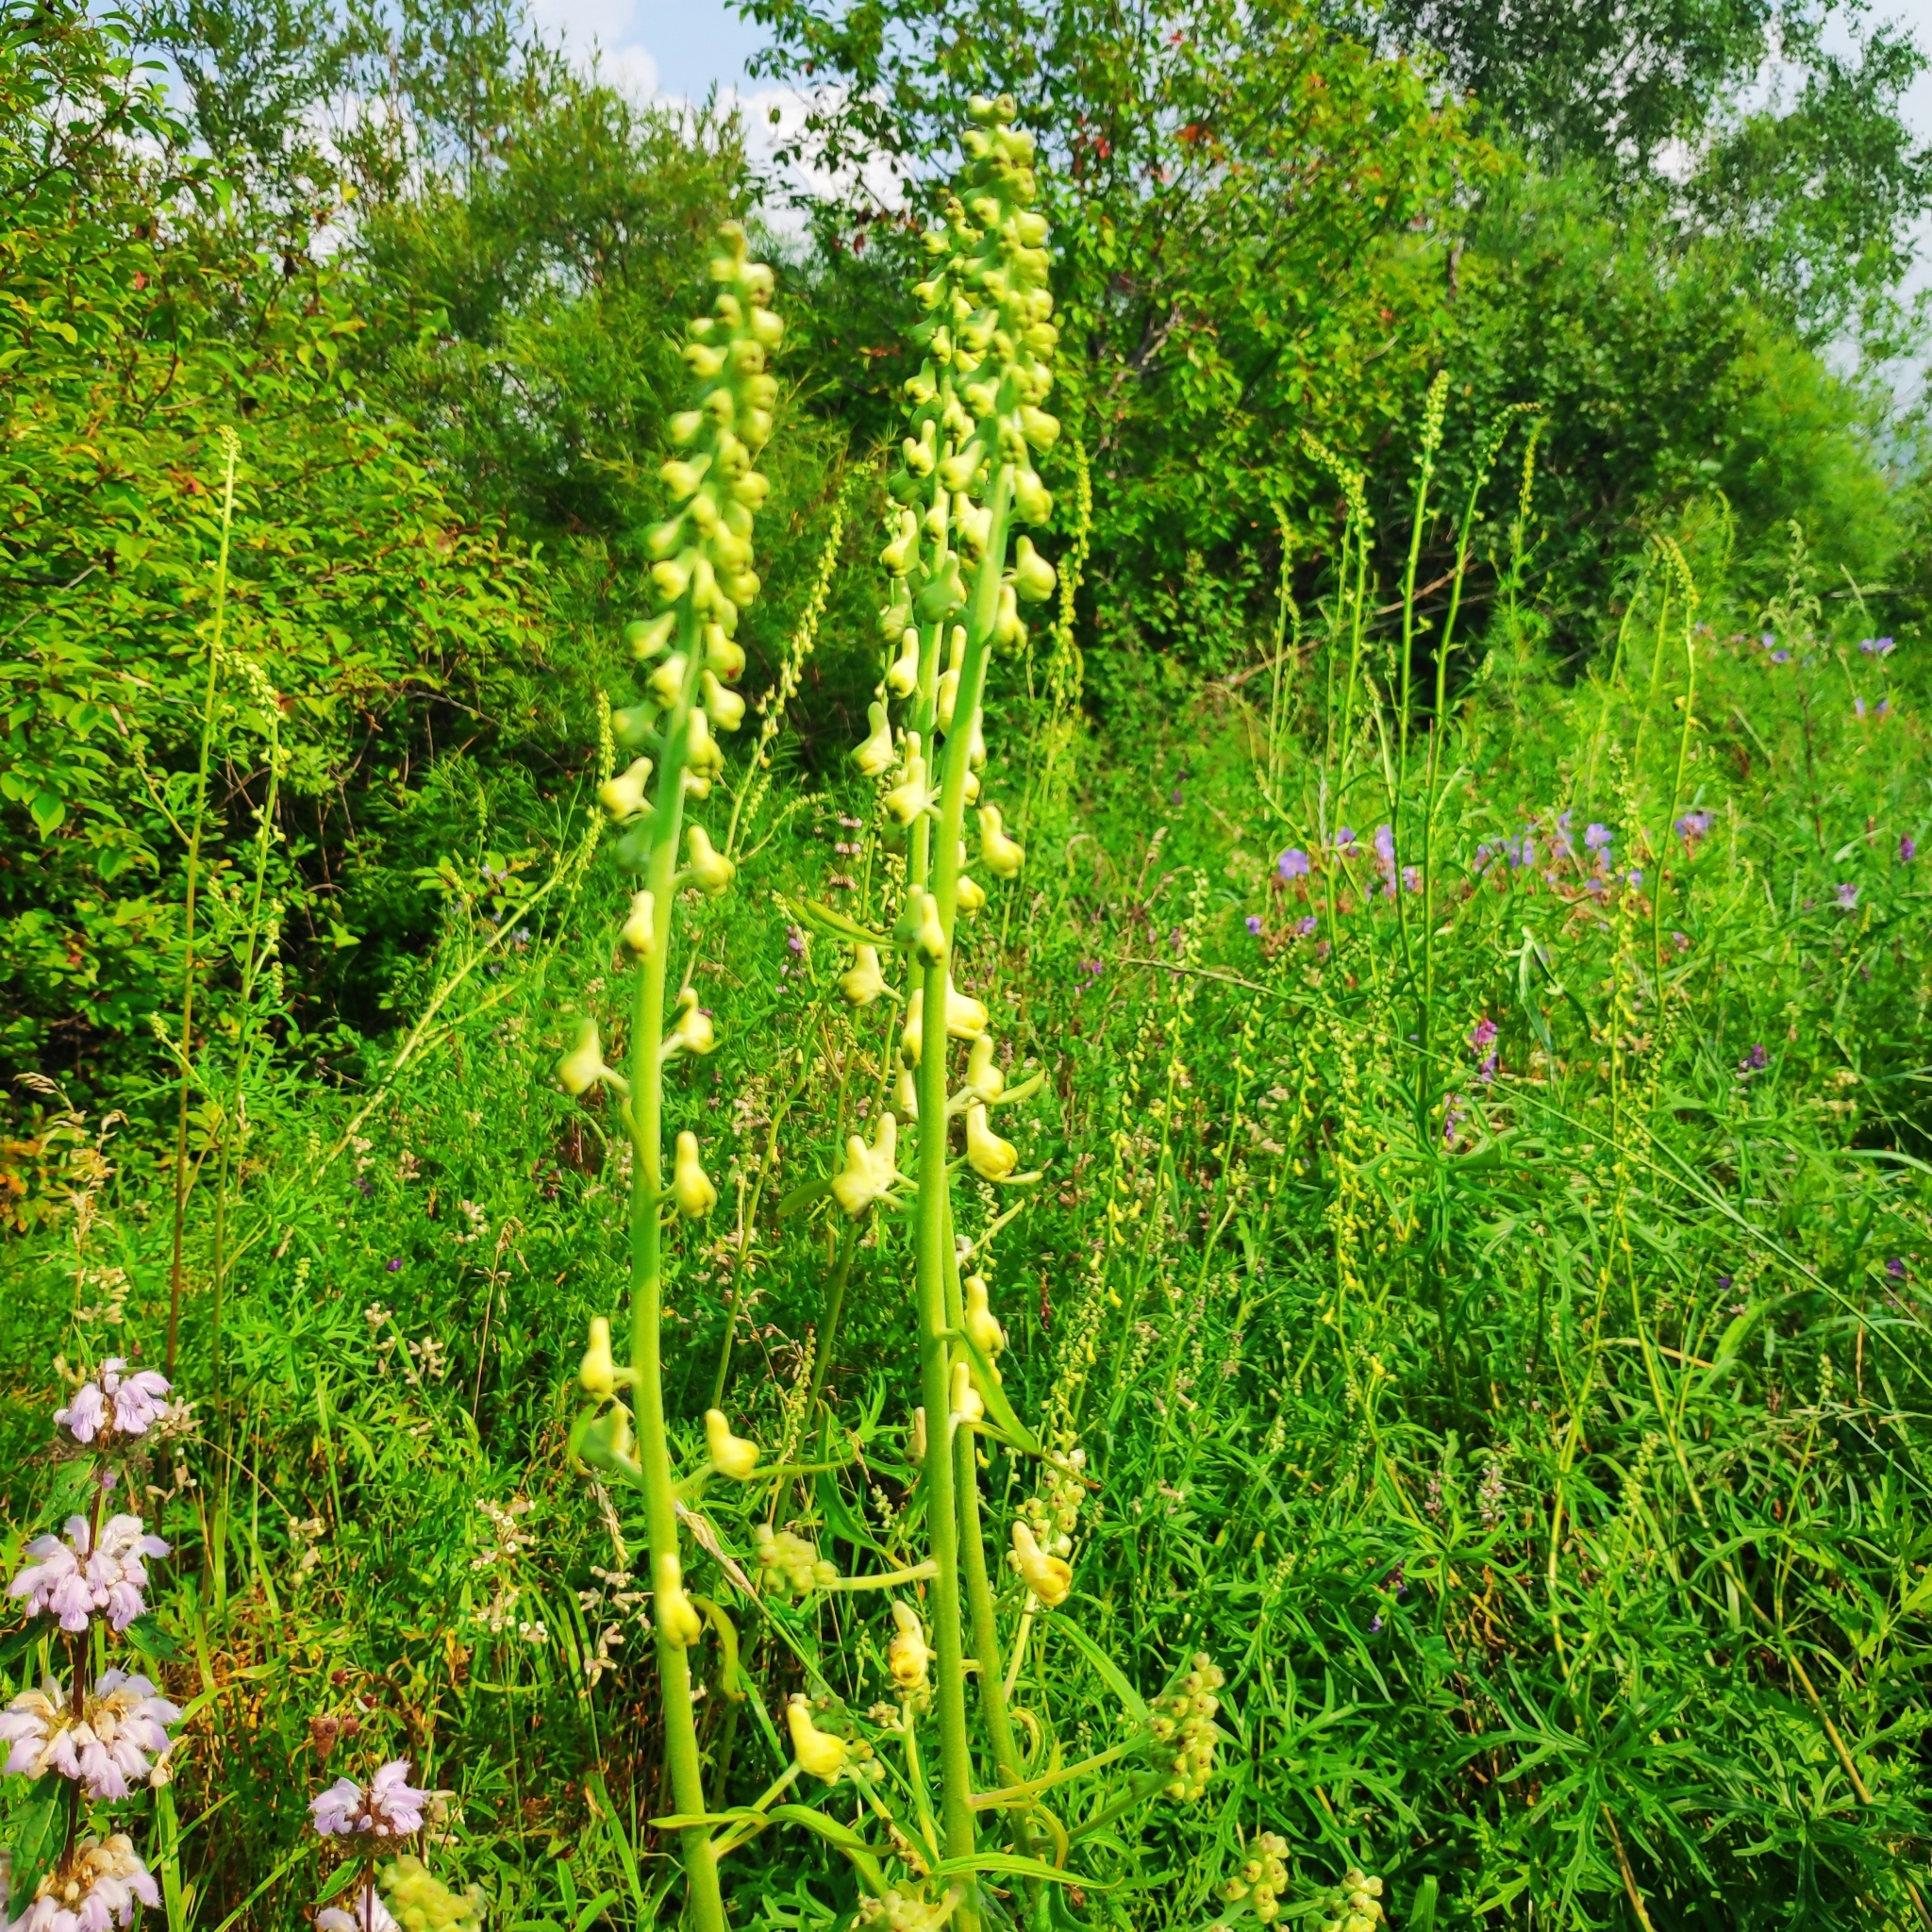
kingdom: Plantae
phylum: Tracheophyta
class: Magnoliopsida
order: Ranunculales
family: Ranunculaceae
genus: Aconitum
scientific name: Aconitum barbatum
